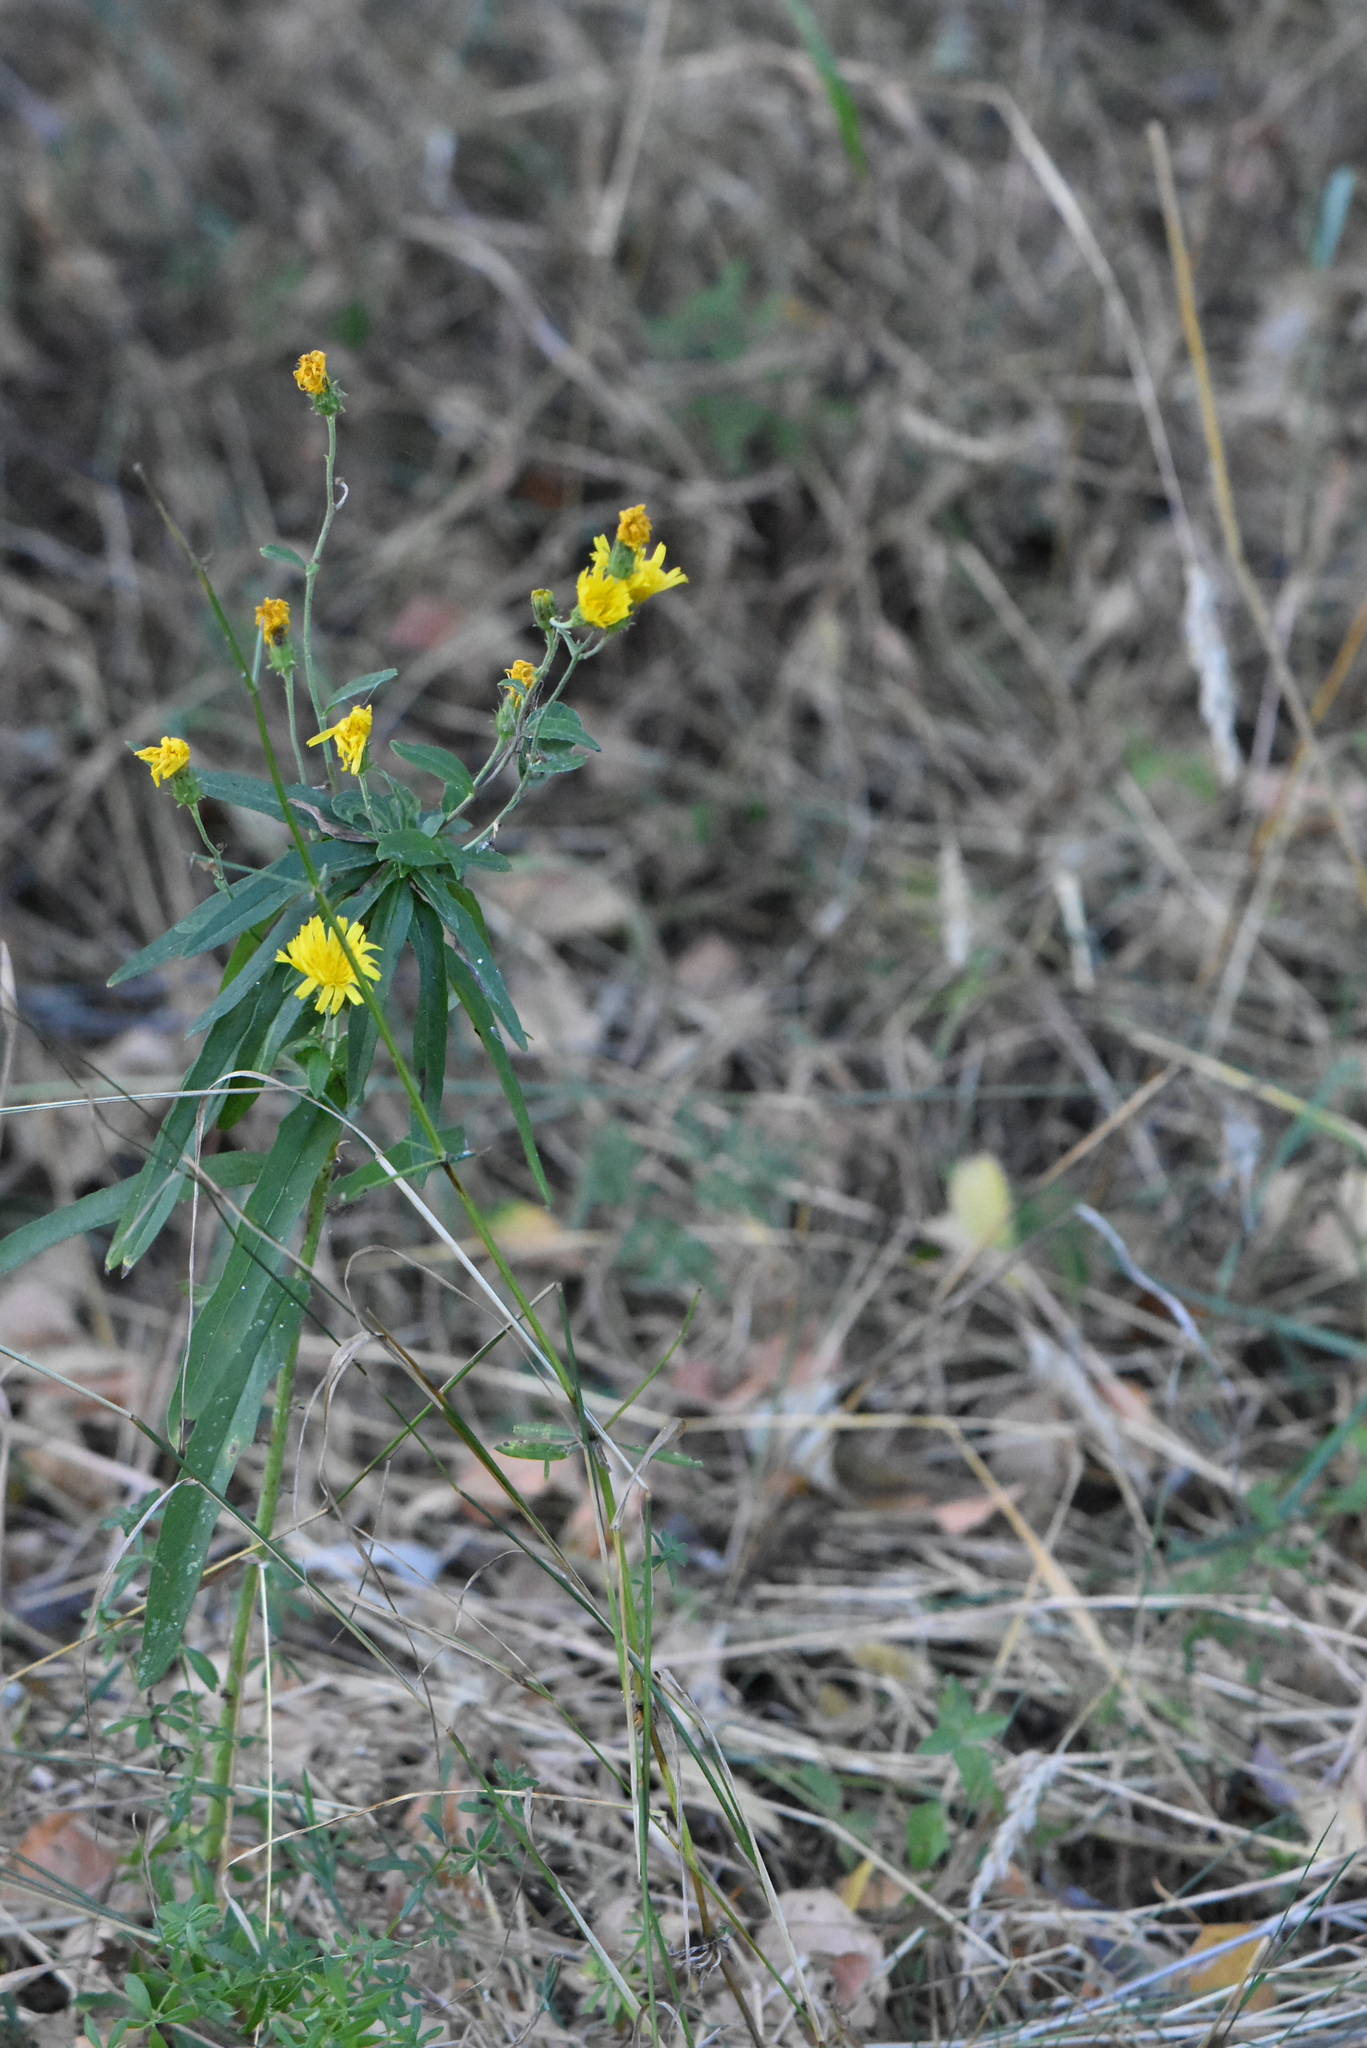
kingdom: Plantae
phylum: Tracheophyta
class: Magnoliopsida
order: Asterales
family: Asteraceae
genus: Hieracium
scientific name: Hieracium umbellatum
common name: Northern hawkweed
